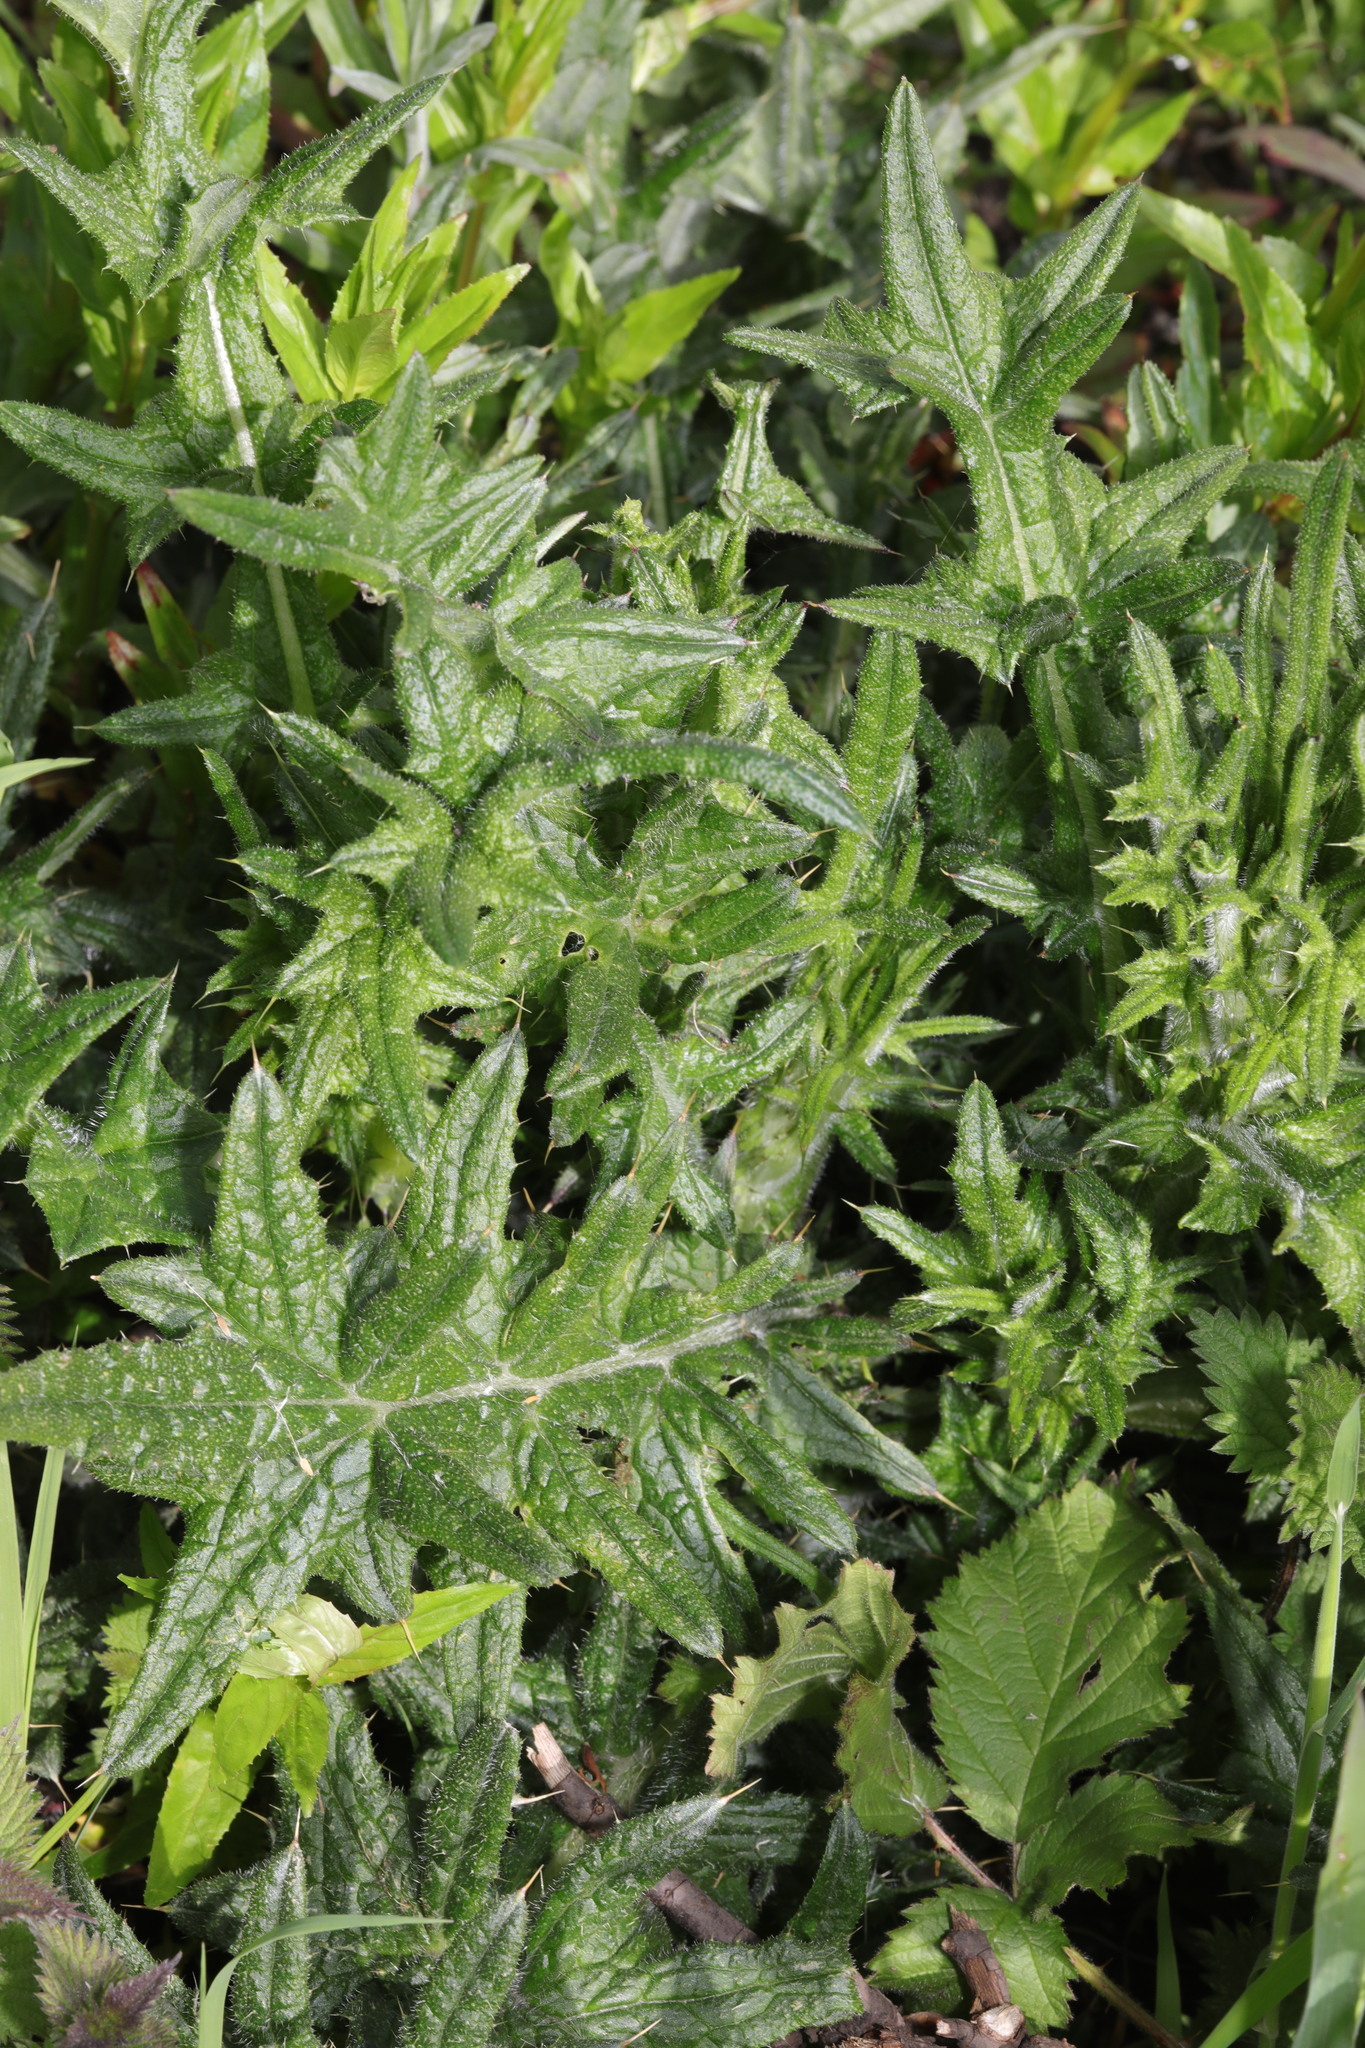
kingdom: Plantae
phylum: Tracheophyta
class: Magnoliopsida
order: Asterales
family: Asteraceae
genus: Cirsium
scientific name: Cirsium vulgare
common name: Bull thistle
